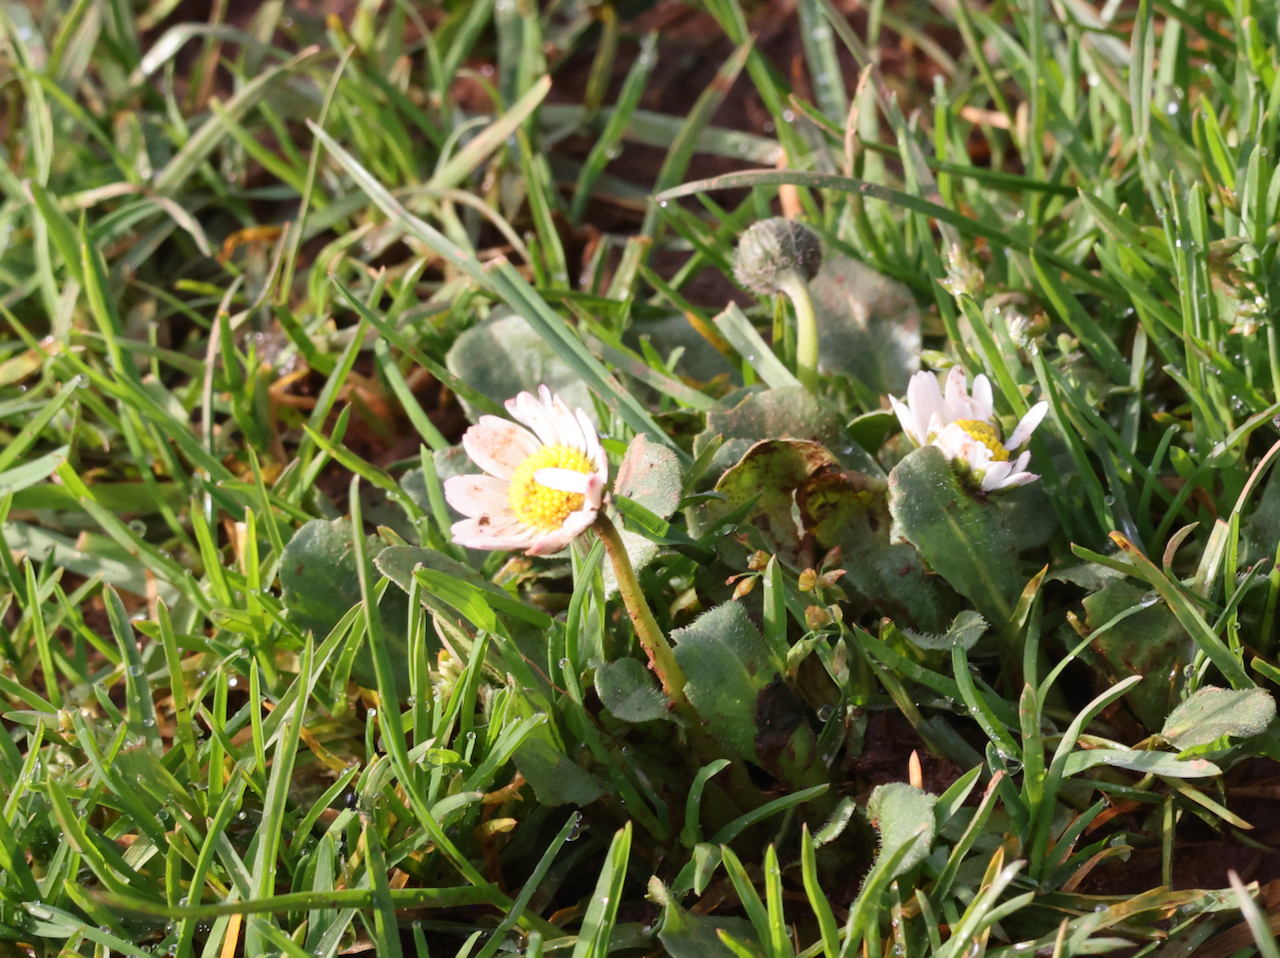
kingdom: Plantae
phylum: Tracheophyta
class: Magnoliopsida
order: Asterales
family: Asteraceae
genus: Bellis
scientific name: Bellis perennis
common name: Lawndaisy
